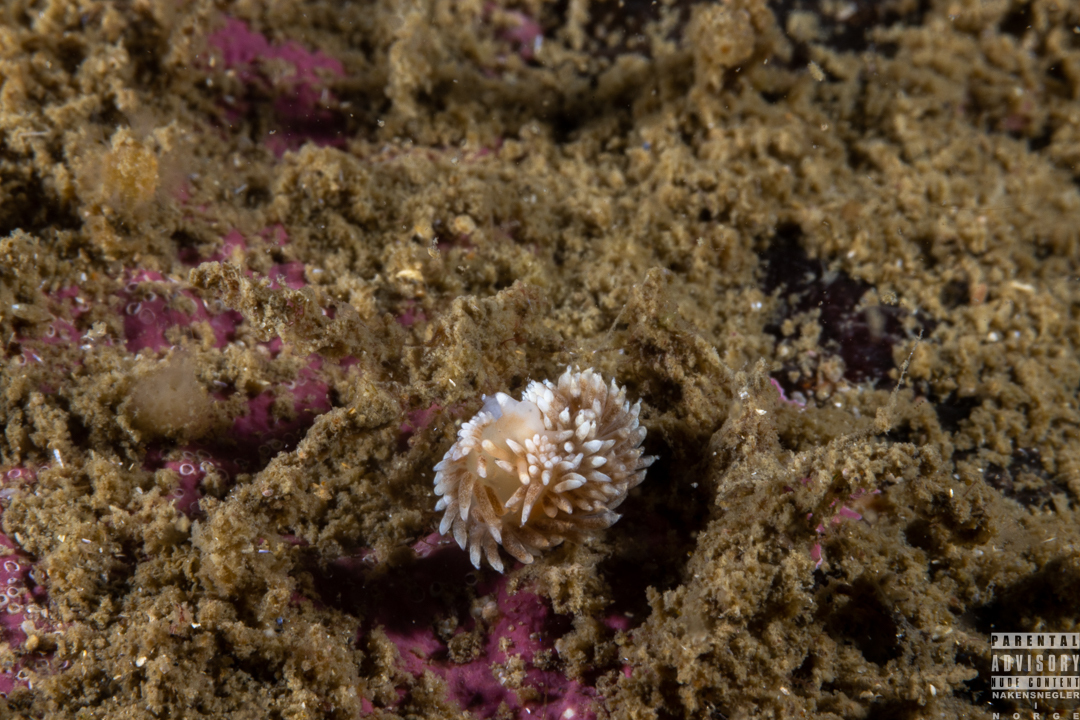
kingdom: Animalia
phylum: Mollusca
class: Gastropoda
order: Nudibranchia
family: Aeolidiidae
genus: Aeolidiella
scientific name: Aeolidiella glauca
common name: Orange-brown aeolid
